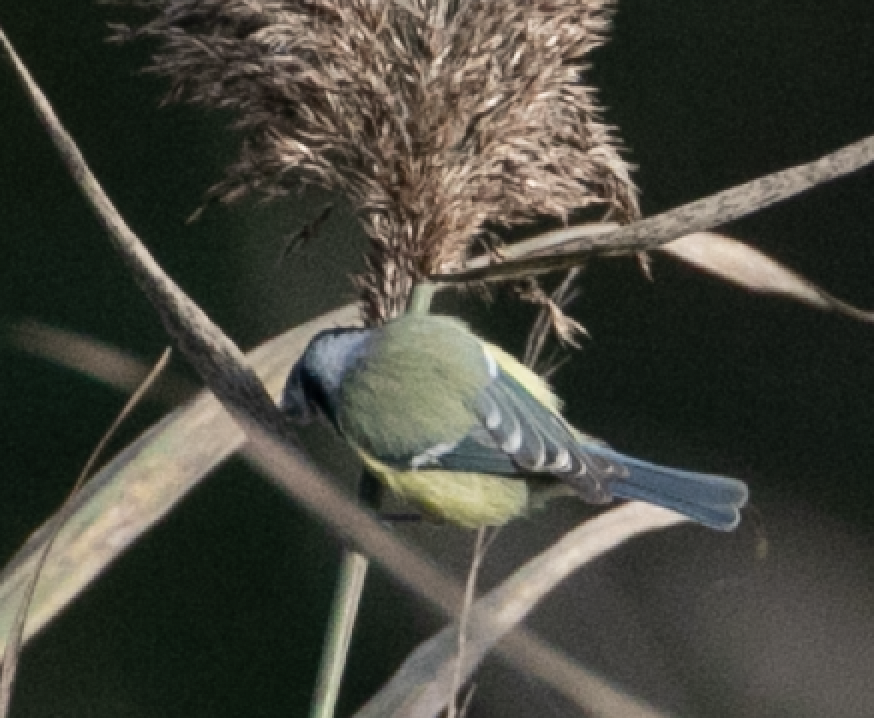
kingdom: Animalia
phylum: Chordata
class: Aves
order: Passeriformes
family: Paridae
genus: Cyanistes
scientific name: Cyanistes caeruleus
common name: Eurasian blue tit
